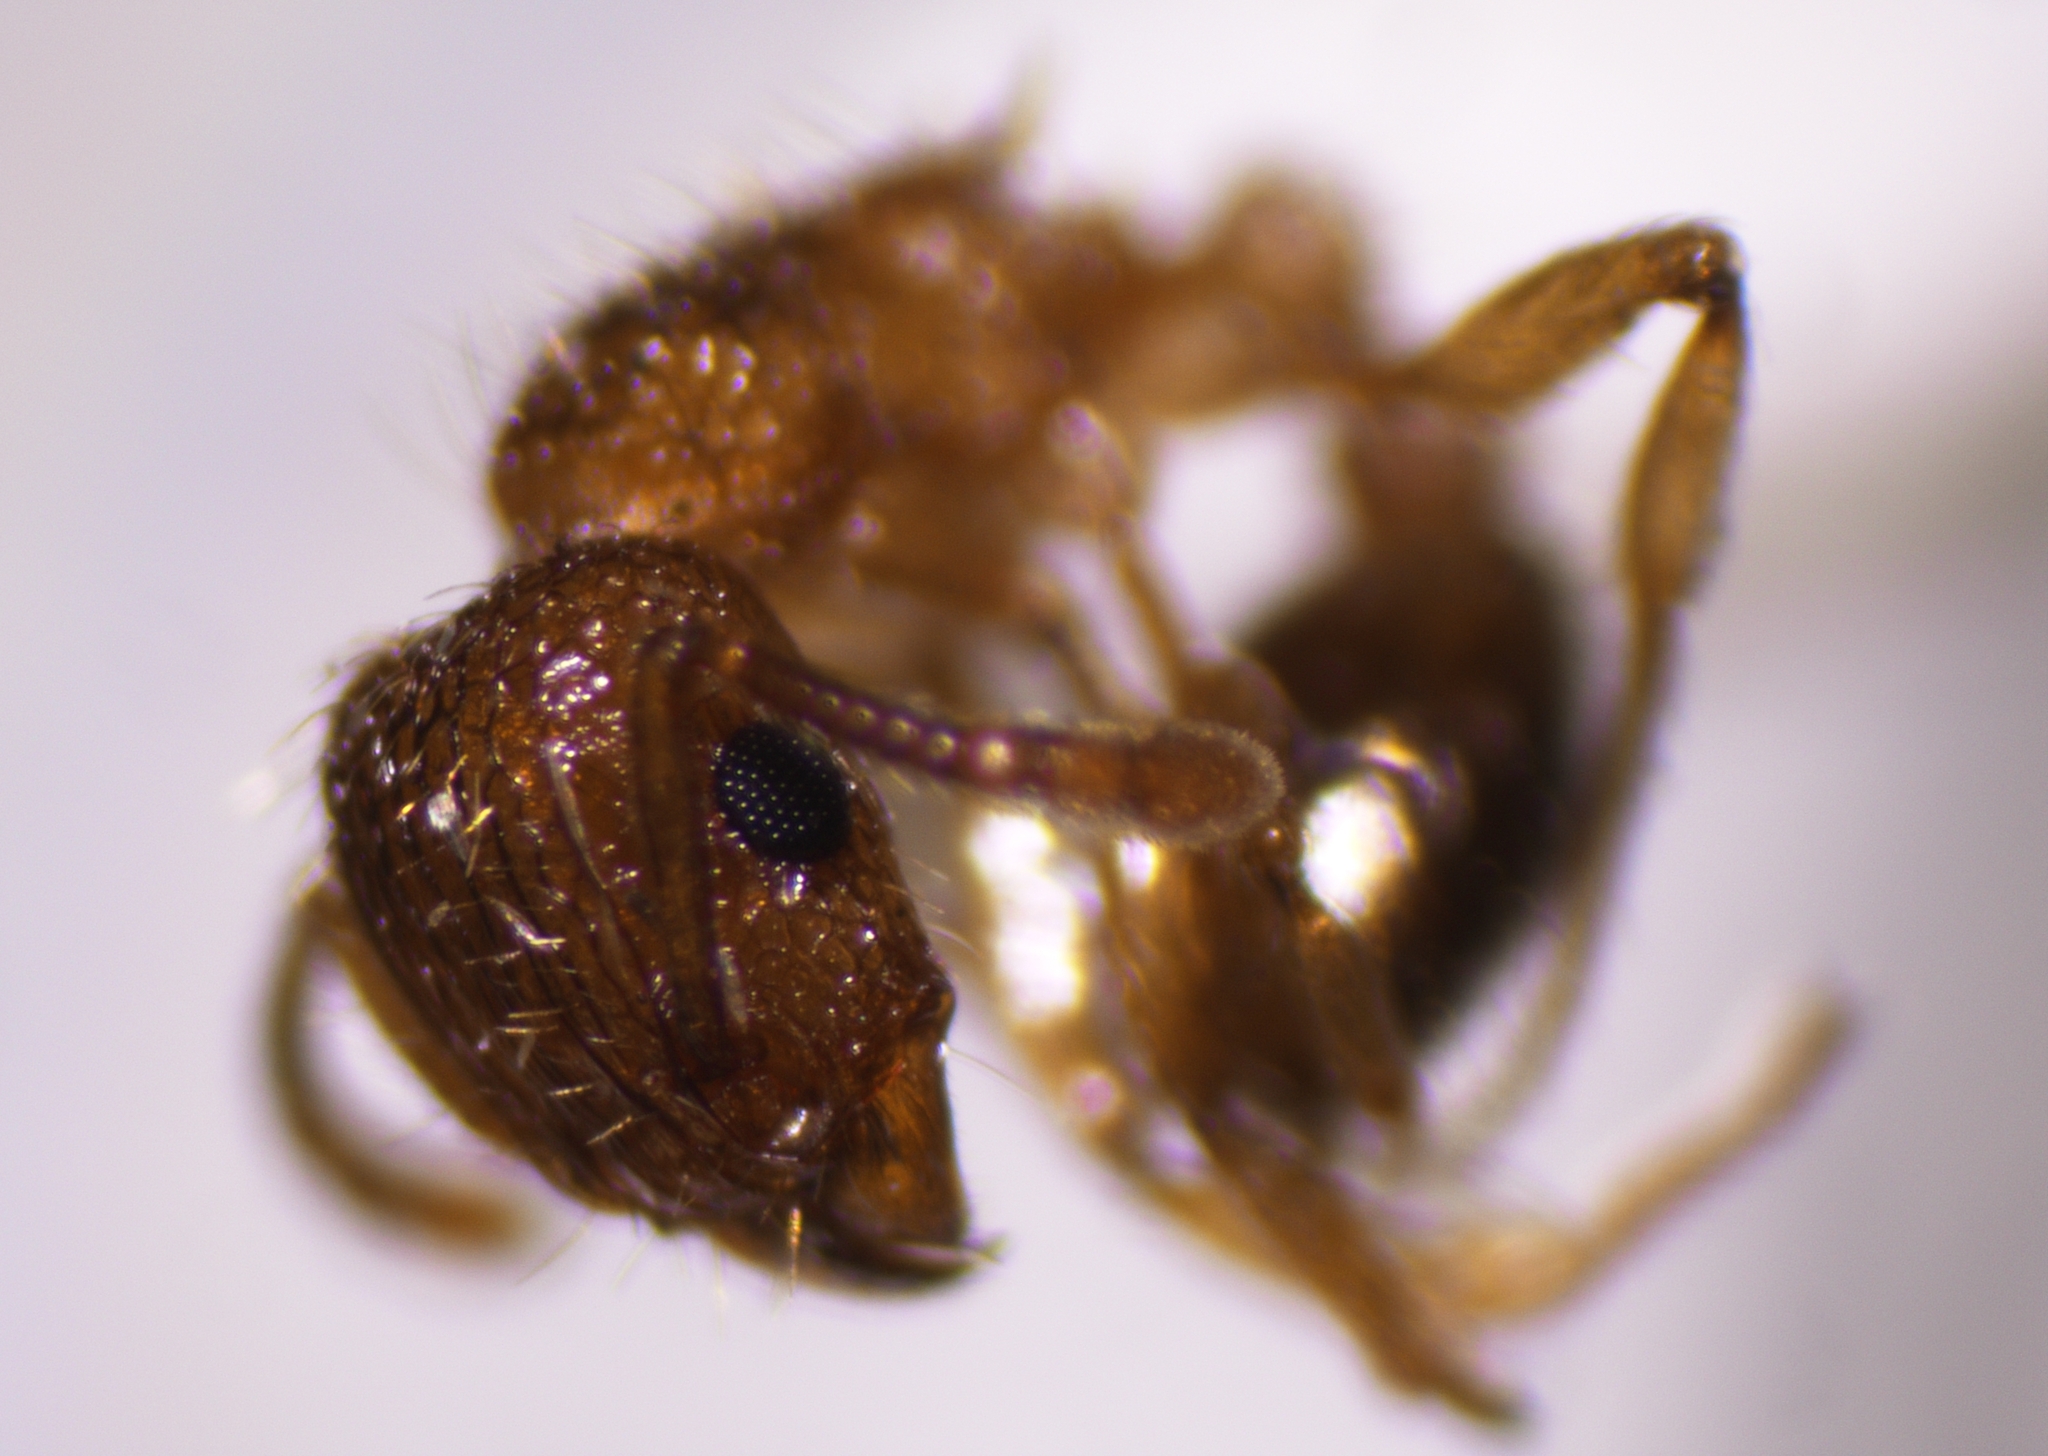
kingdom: Animalia
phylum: Arthropoda
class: Insecta
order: Hymenoptera
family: Formicidae
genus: Tetramorium
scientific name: Tetramorium bicarinatum
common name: Guinea ant
